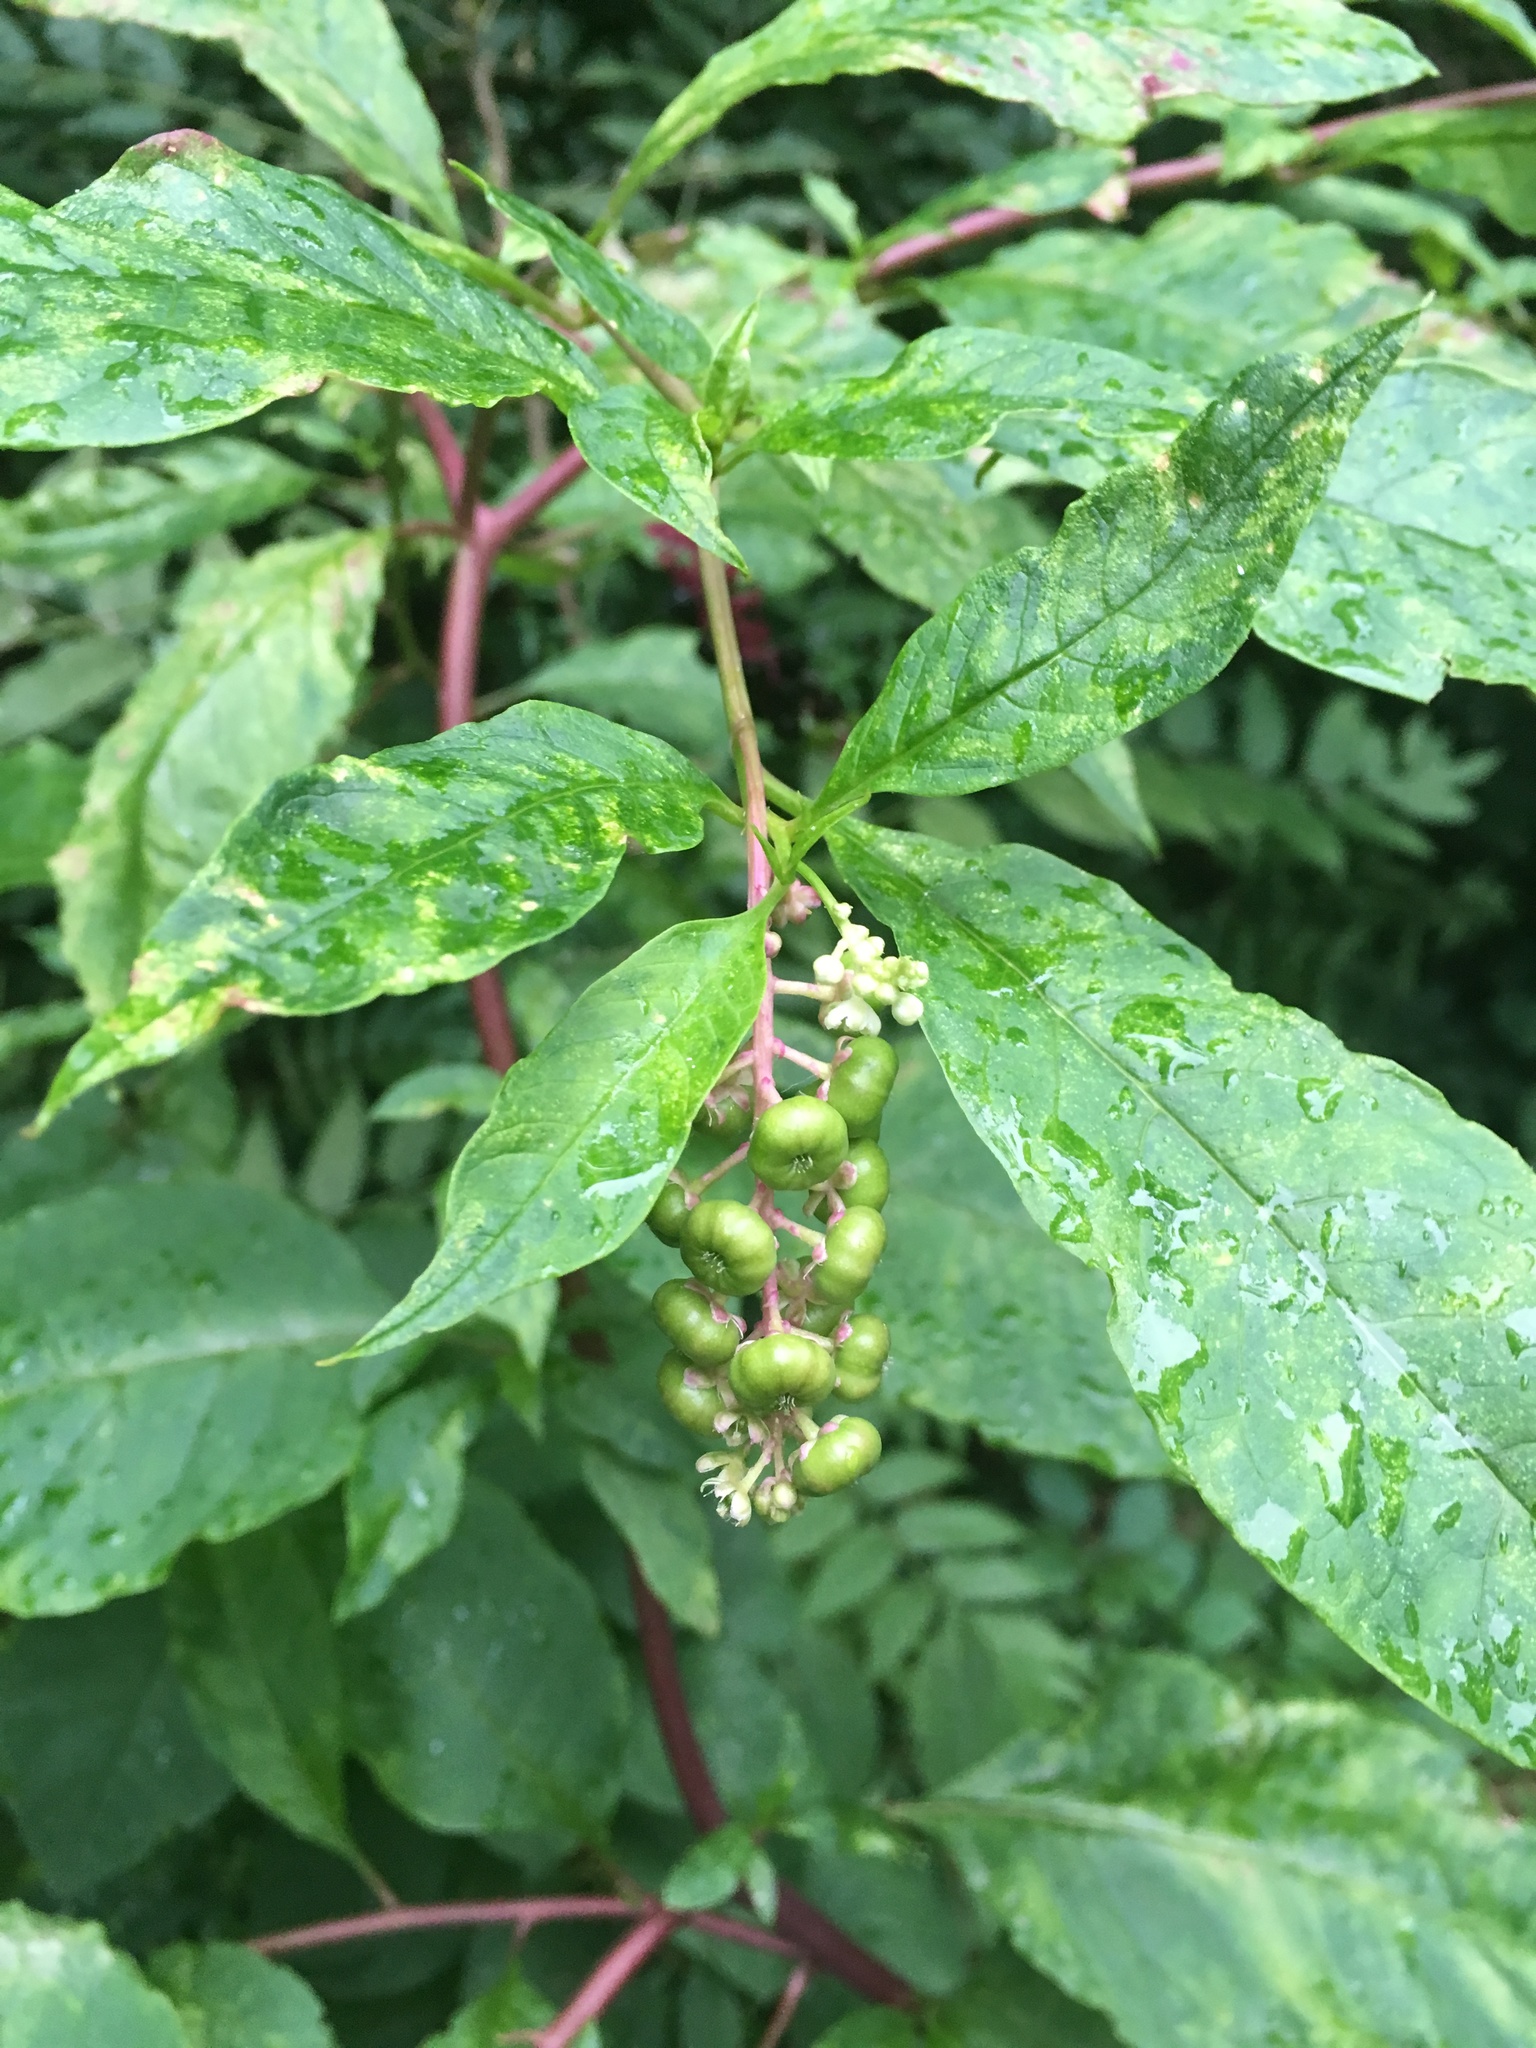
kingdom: Plantae
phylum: Tracheophyta
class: Magnoliopsida
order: Caryophyllales
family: Phytolaccaceae
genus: Phytolacca
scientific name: Phytolacca americana
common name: American pokeweed
